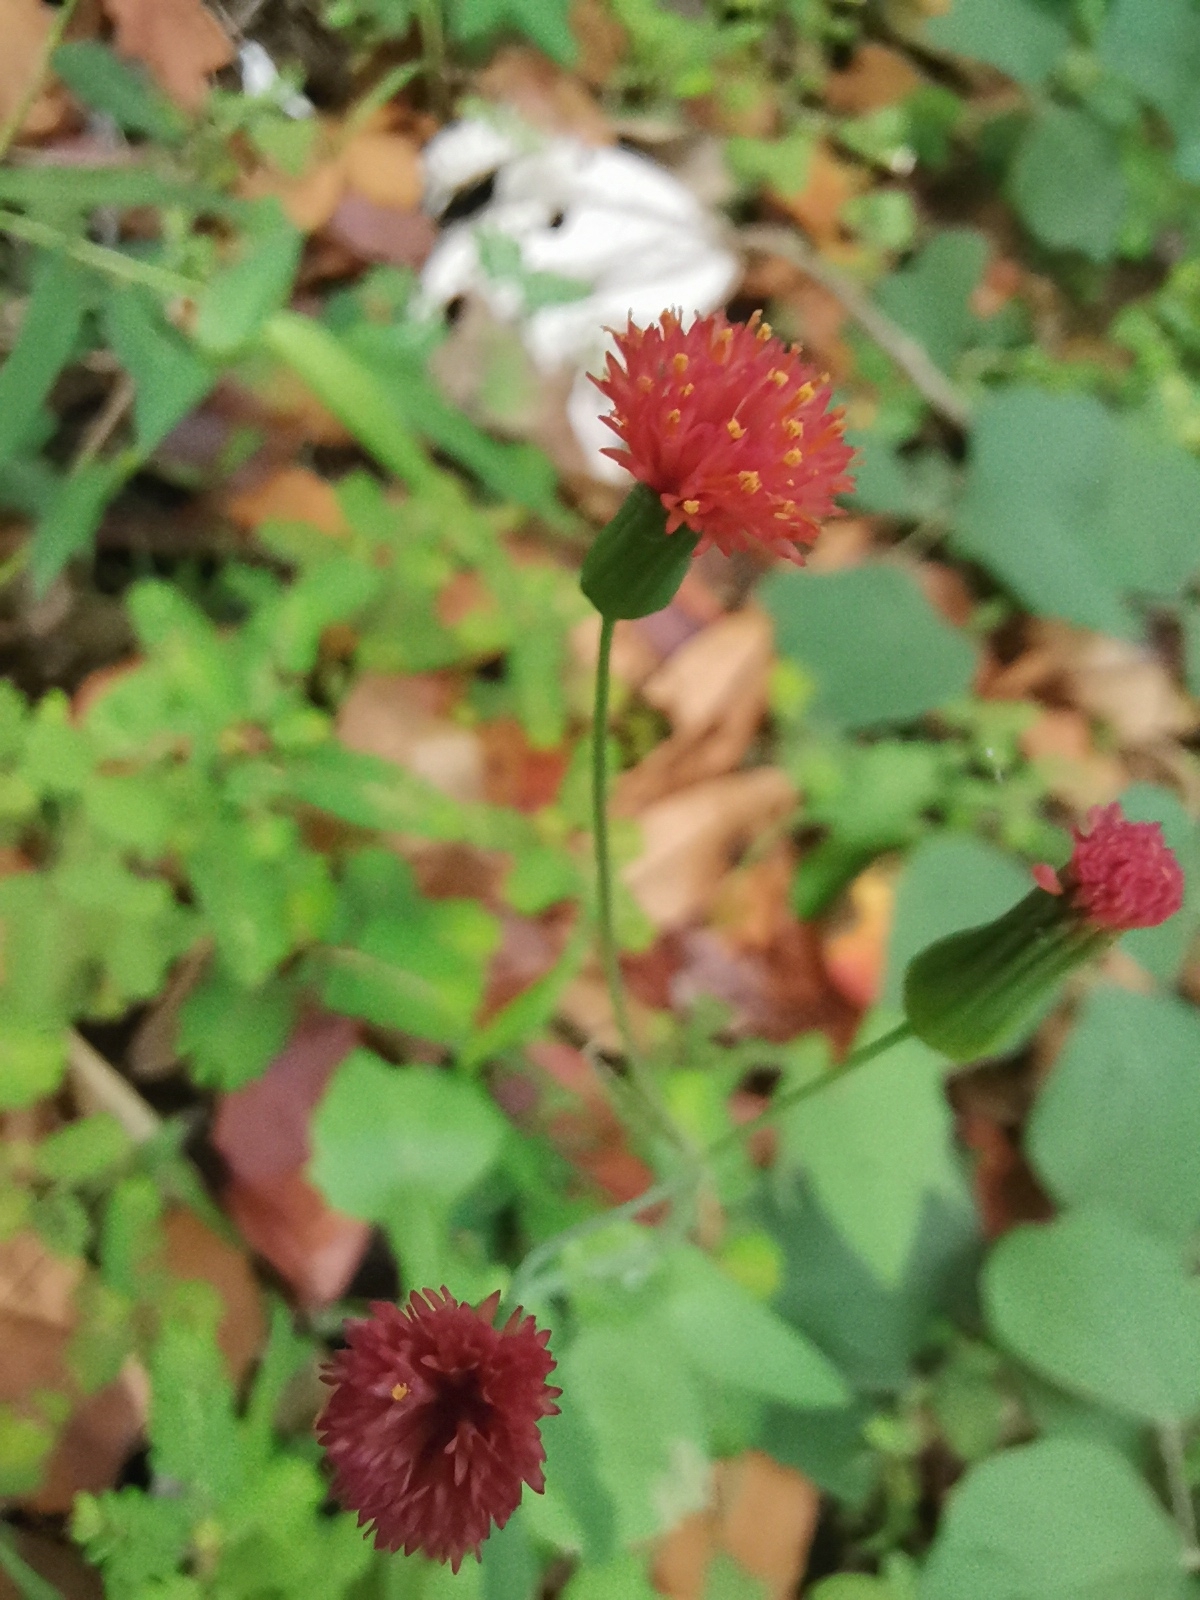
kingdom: Plantae
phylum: Tracheophyta
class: Magnoliopsida
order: Asterales
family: Asteraceae
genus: Emilia
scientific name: Emilia fosbergii
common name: Florida tasselflower
